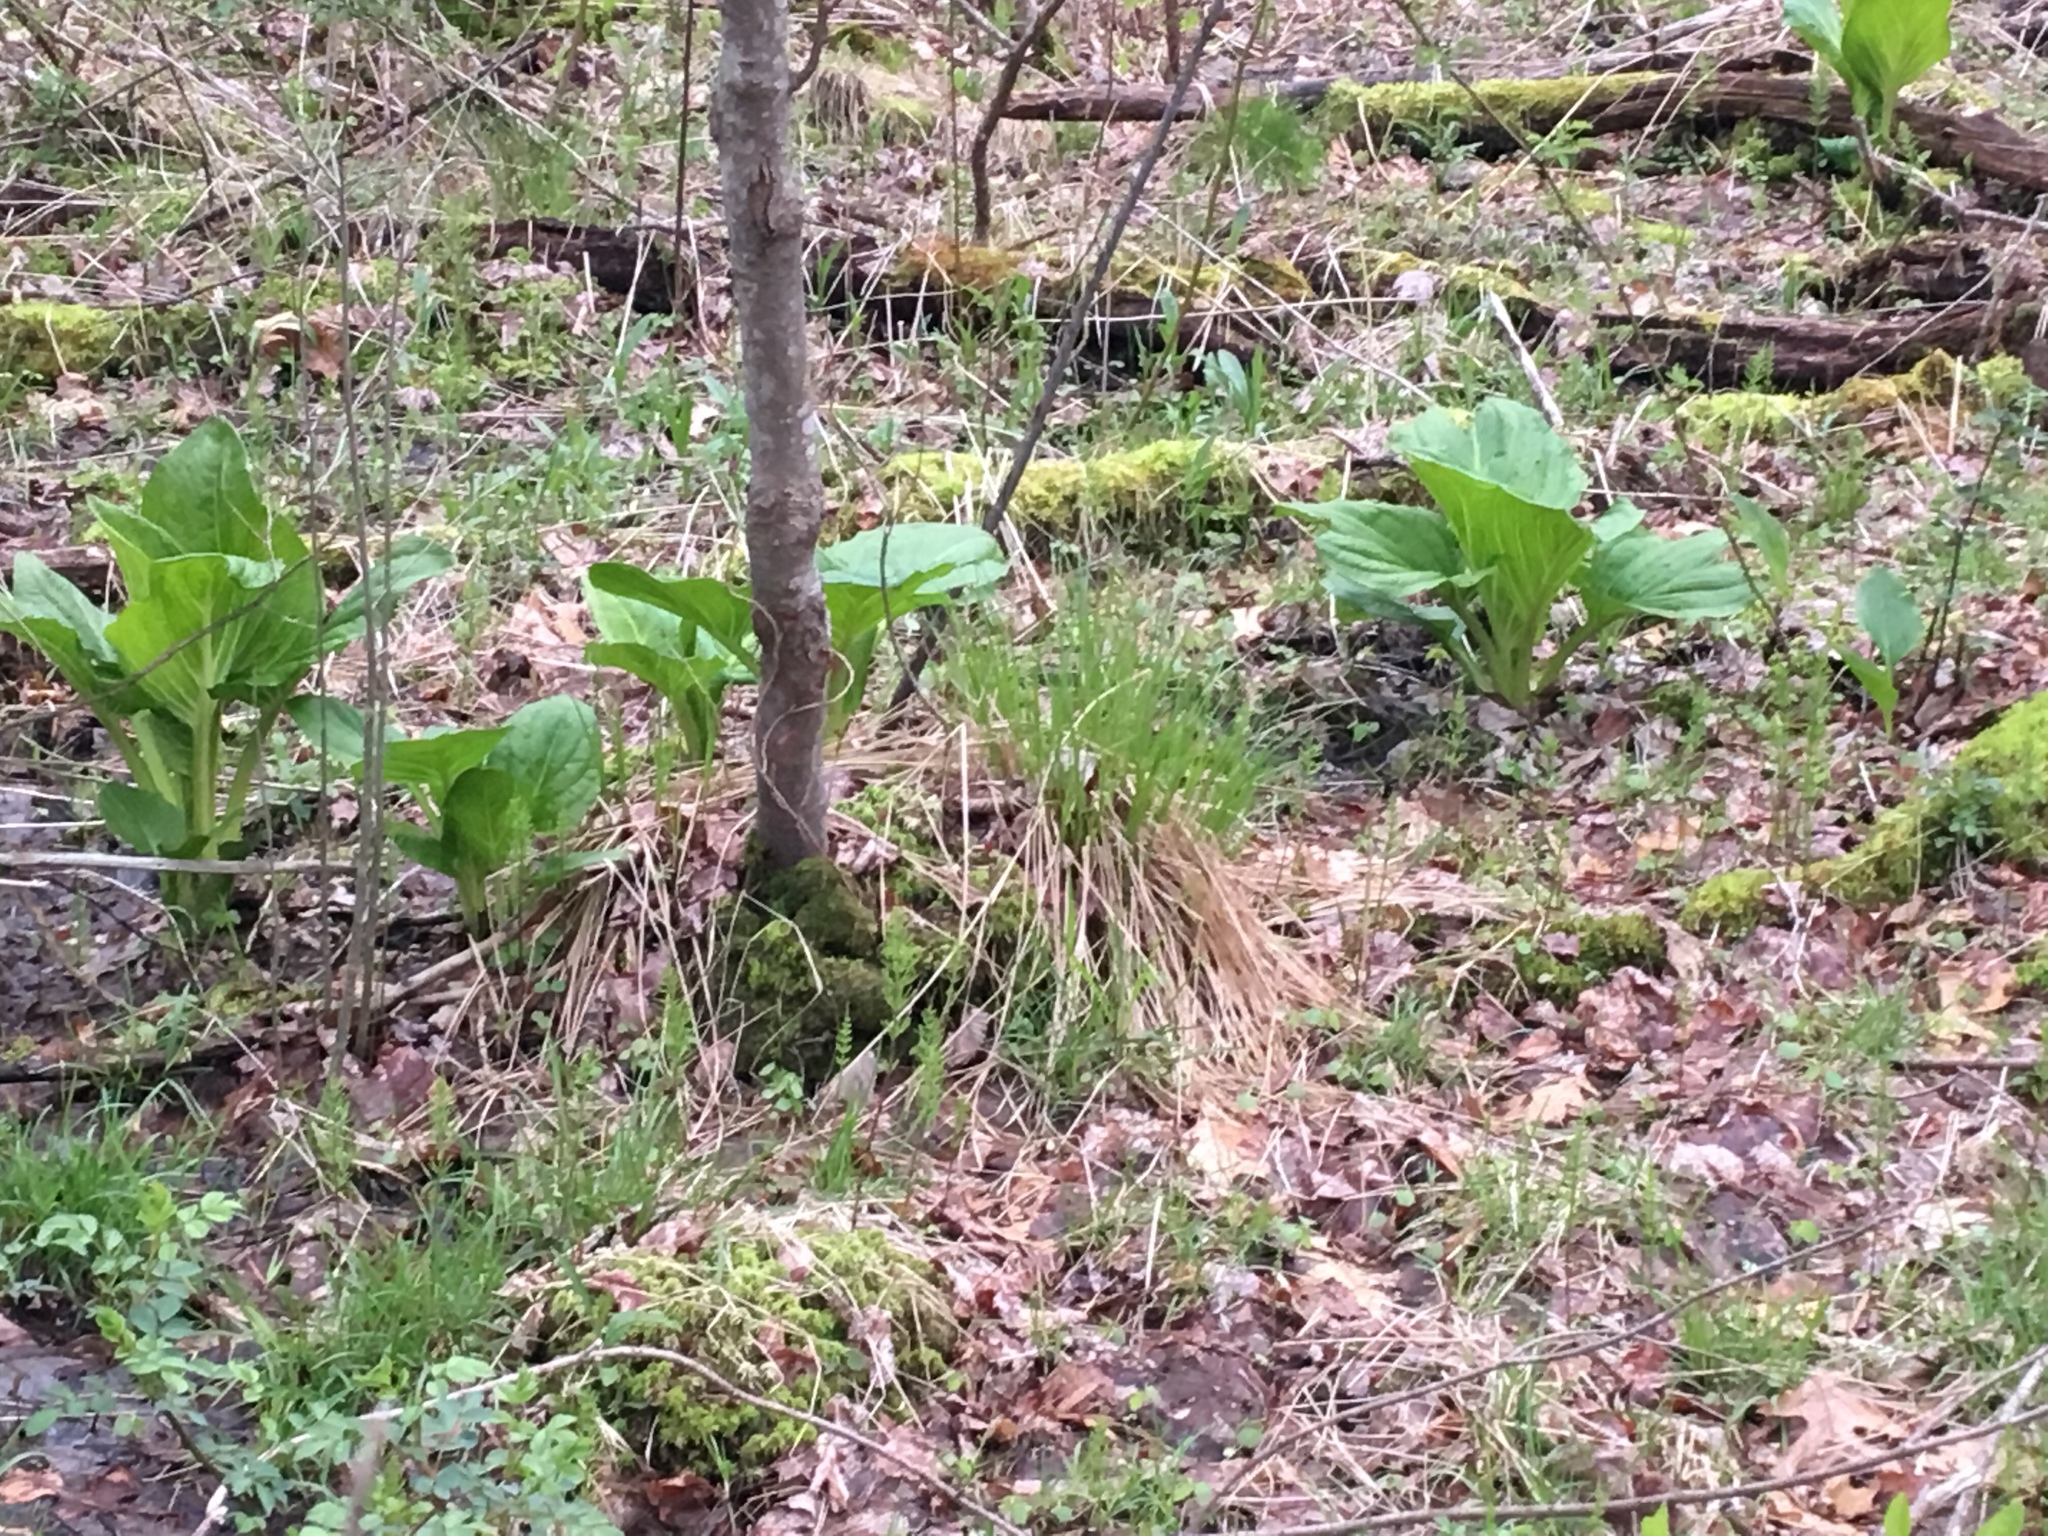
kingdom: Plantae
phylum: Tracheophyta
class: Liliopsida
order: Alismatales
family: Araceae
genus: Symplocarpus
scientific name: Symplocarpus foetidus
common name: Eastern skunk cabbage
